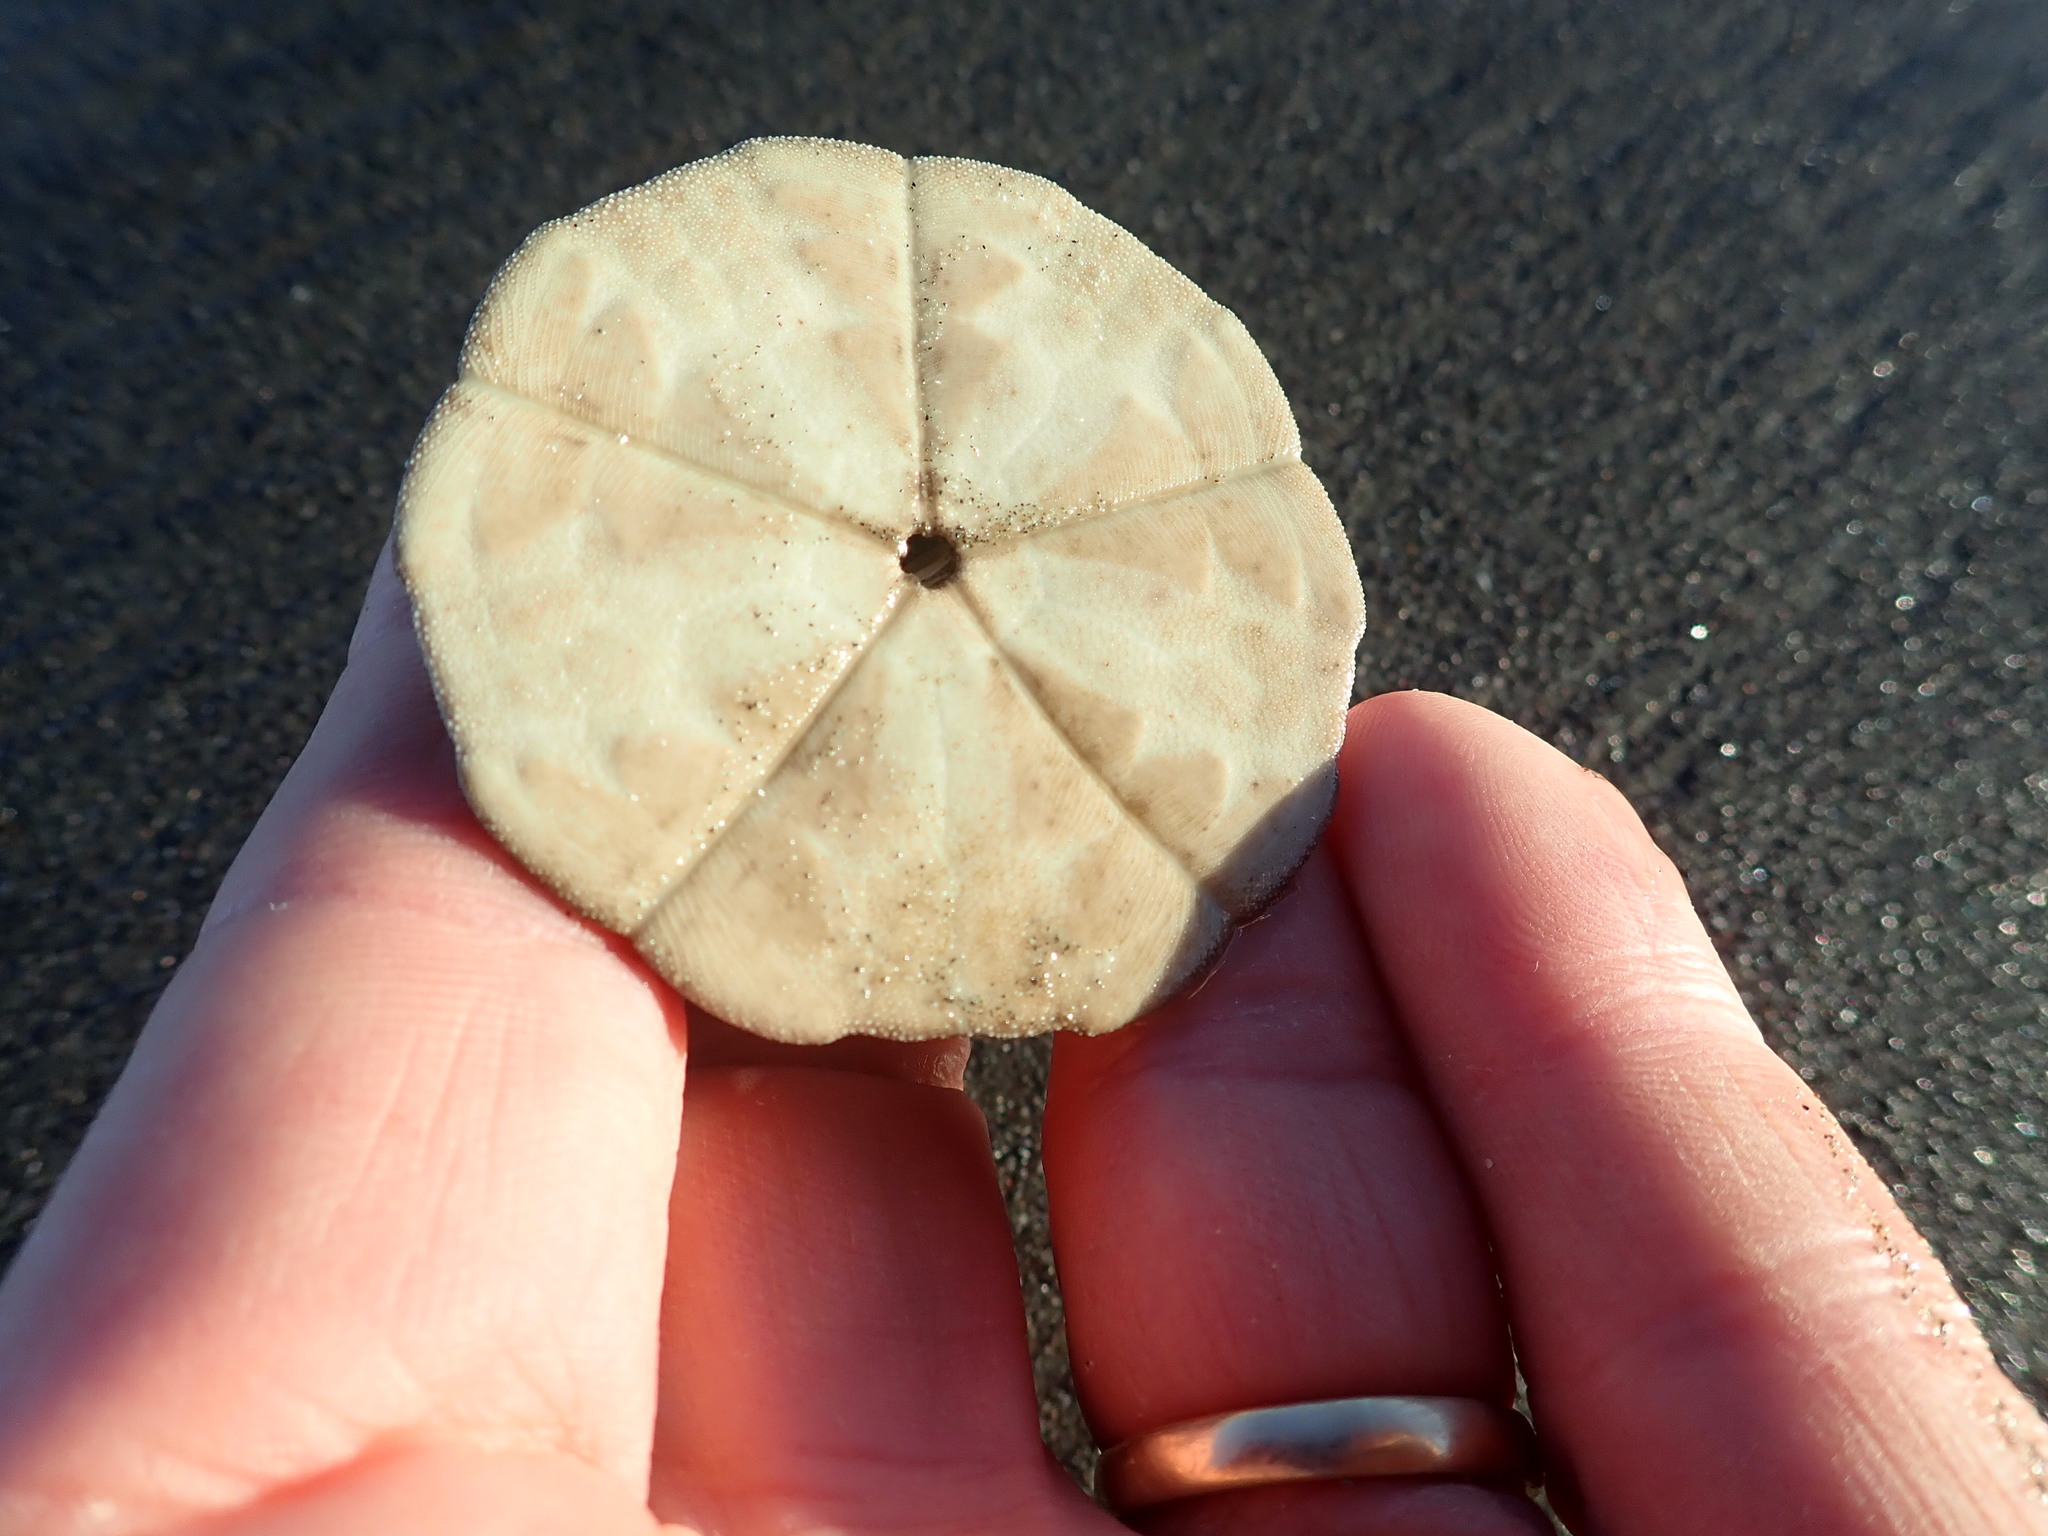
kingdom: Animalia
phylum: Echinodermata
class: Echinoidea
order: Clypeasteroida
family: Clypeasteridae
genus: Fellaster
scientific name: Fellaster zelandiae
